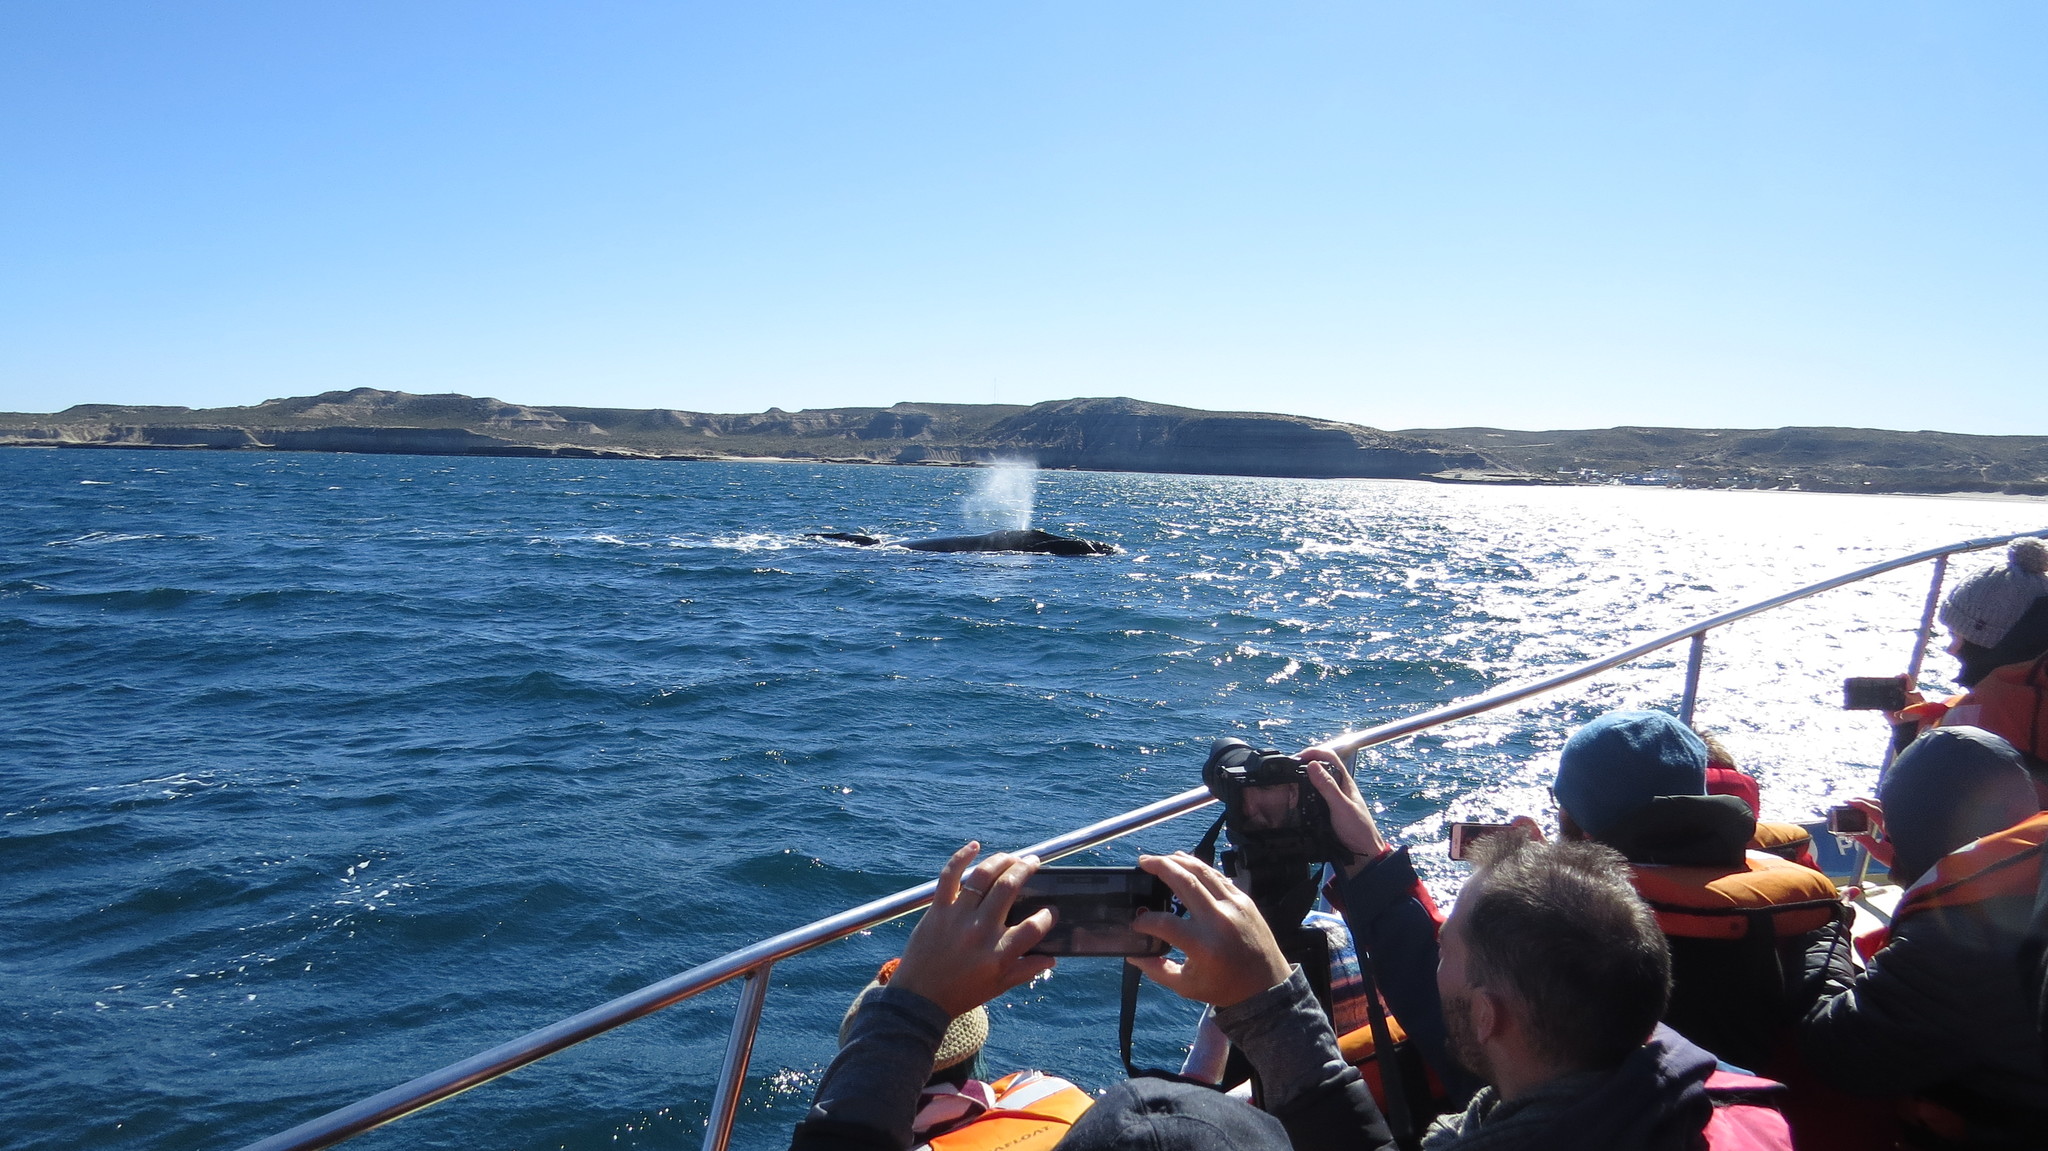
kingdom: Animalia
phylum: Chordata
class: Mammalia
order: Cetacea
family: Balaenidae
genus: Eubalaena
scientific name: Eubalaena australis
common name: Southern right whale
